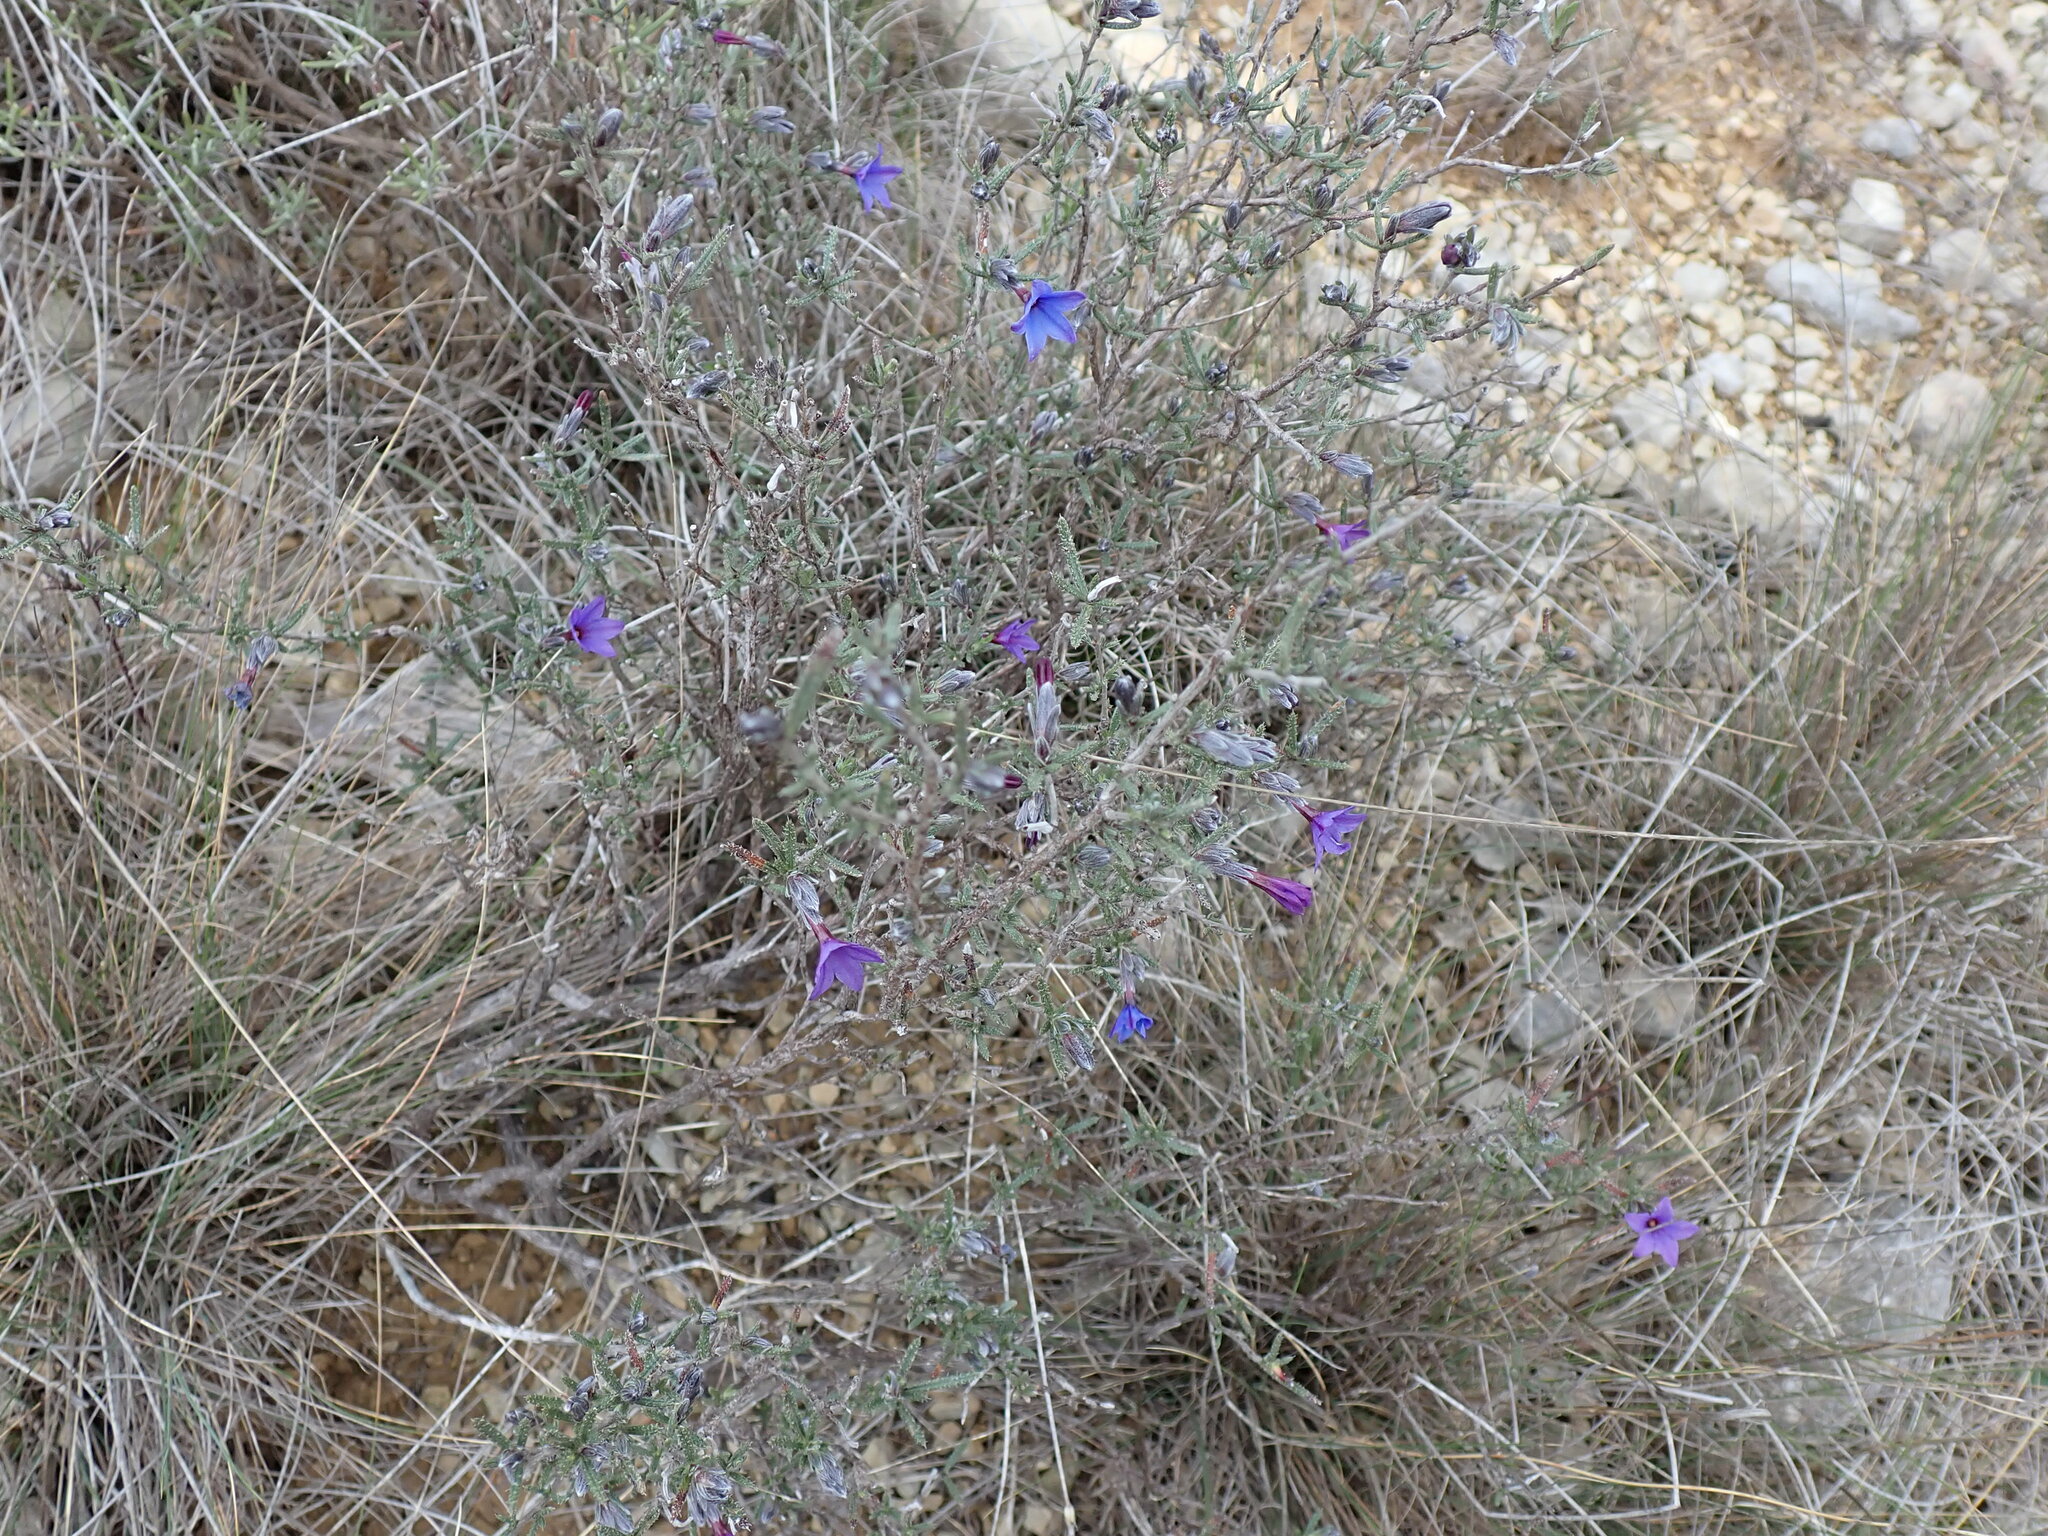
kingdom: Plantae
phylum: Tracheophyta
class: Magnoliopsida
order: Boraginales
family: Boraginaceae
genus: Lithodora
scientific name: Lithodora fruticosa
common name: Shrubby gromwell
